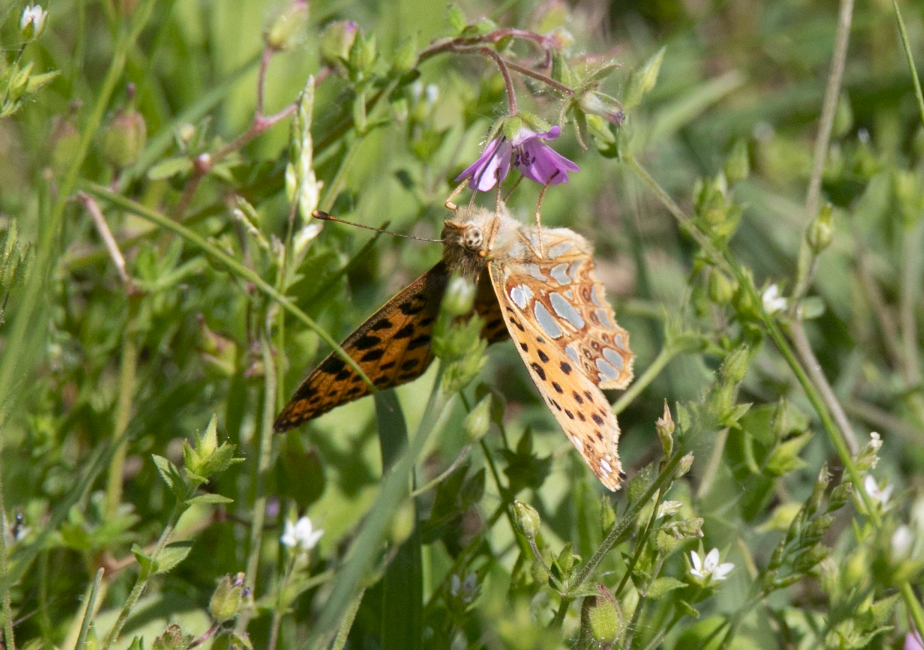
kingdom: Animalia
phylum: Arthropoda
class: Insecta
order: Lepidoptera
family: Nymphalidae
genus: Issoria
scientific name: Issoria lathonia
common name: Queen of spain fritillary
